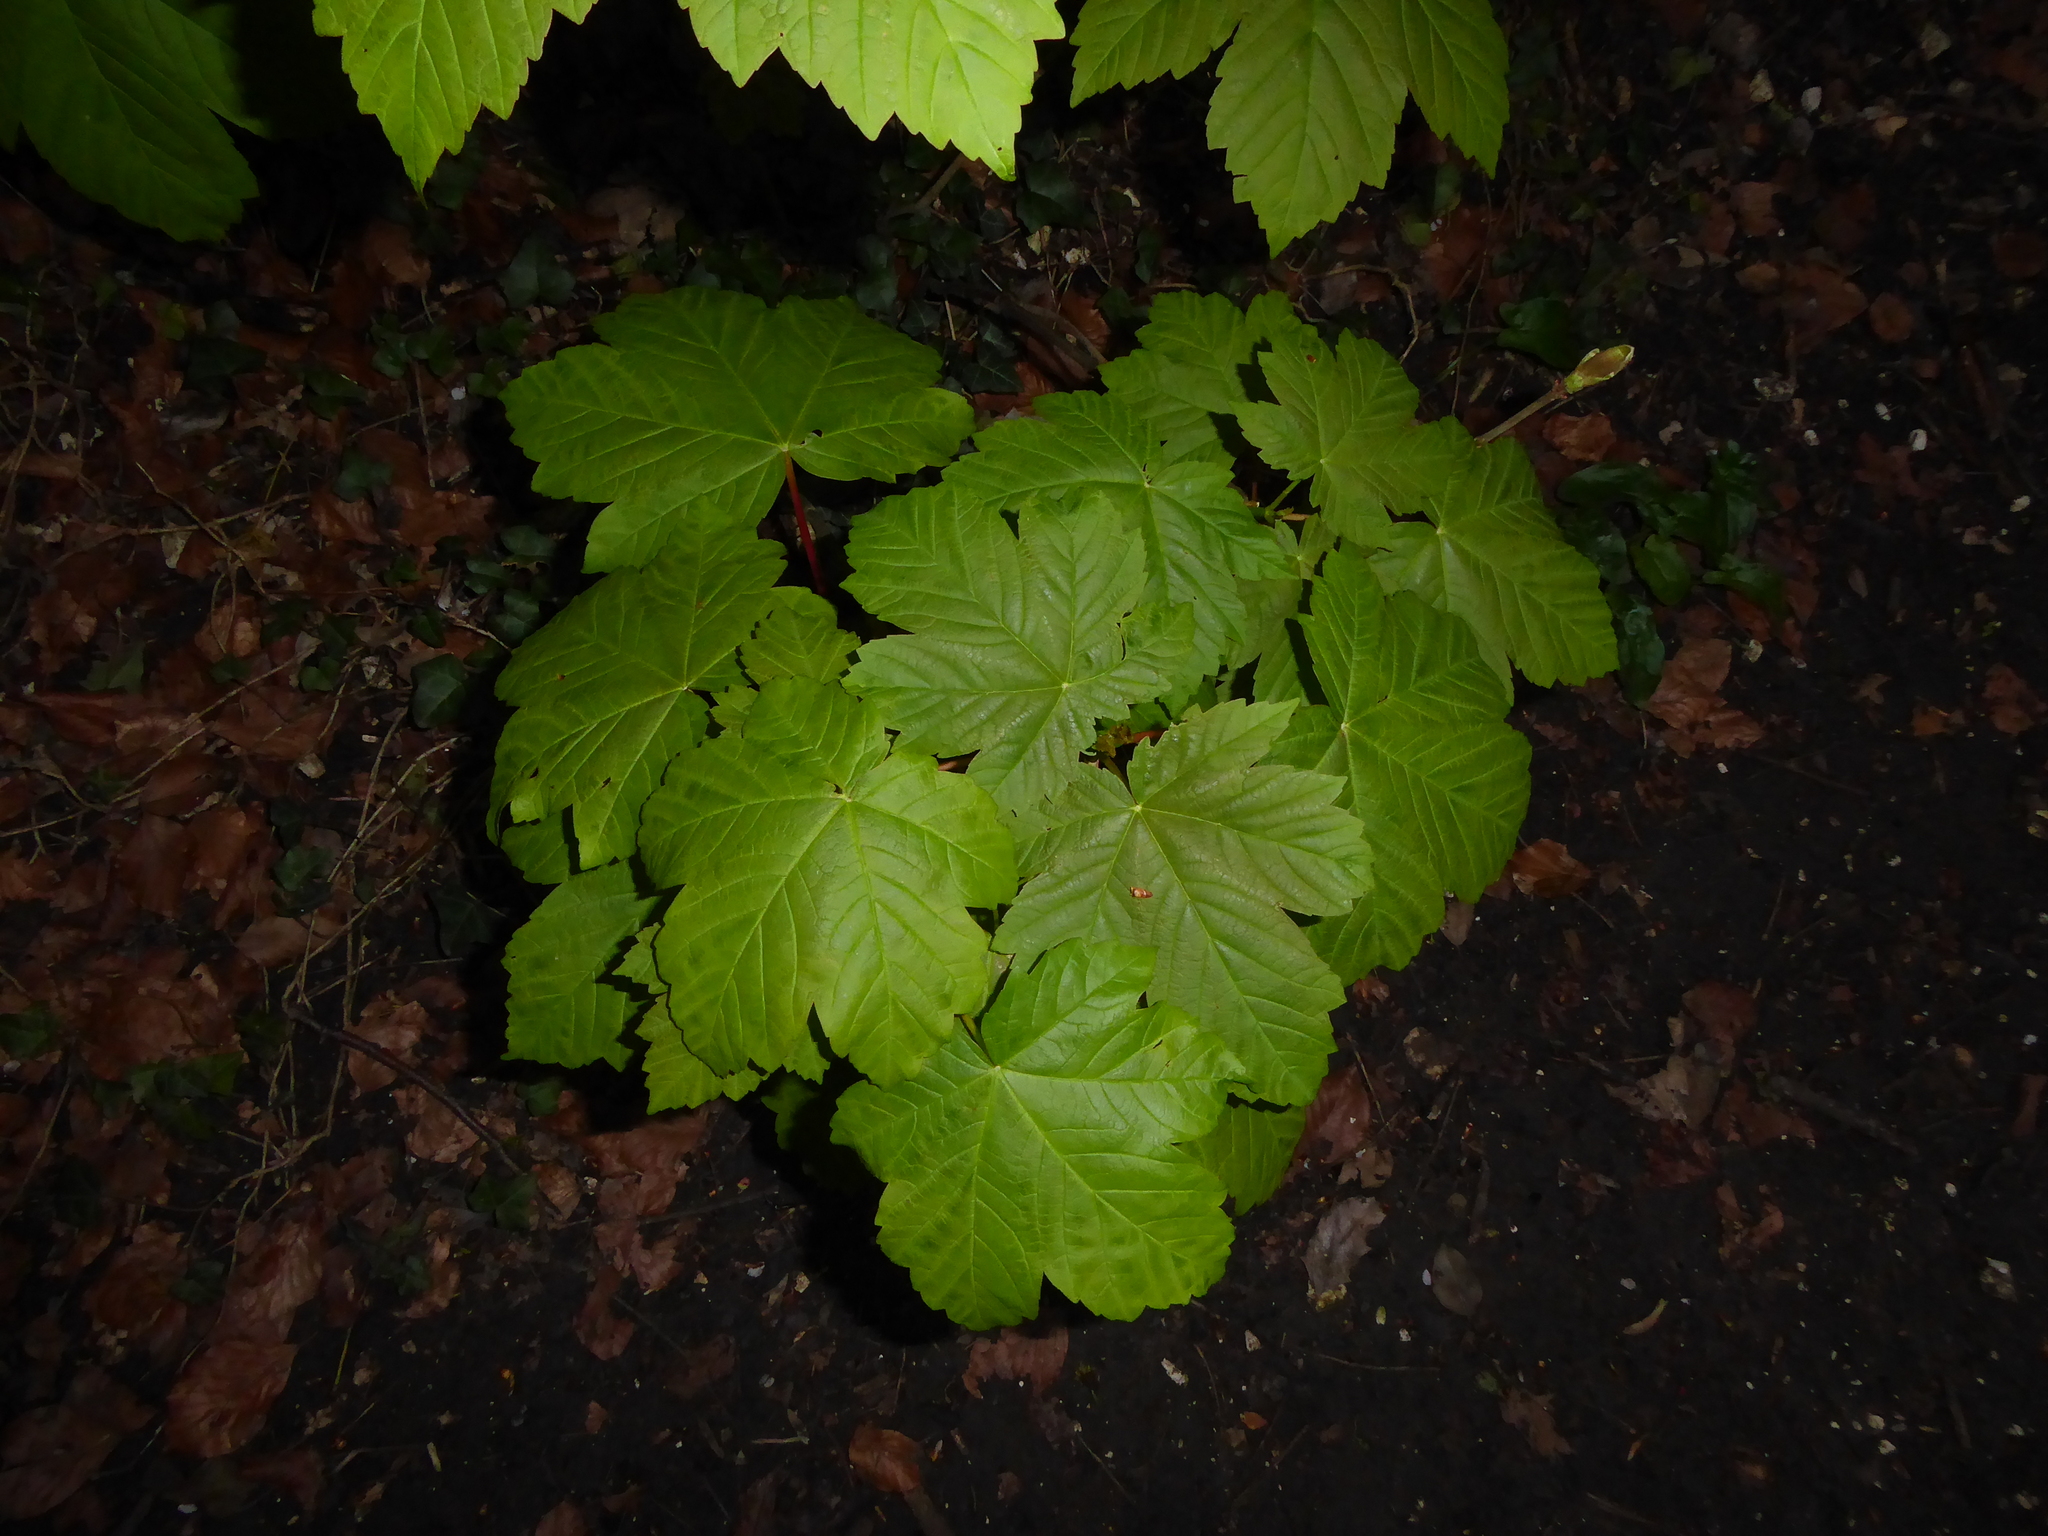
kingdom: Plantae
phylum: Tracheophyta
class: Magnoliopsida
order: Sapindales
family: Sapindaceae
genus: Acer
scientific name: Acer pseudoplatanus
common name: Sycamore
